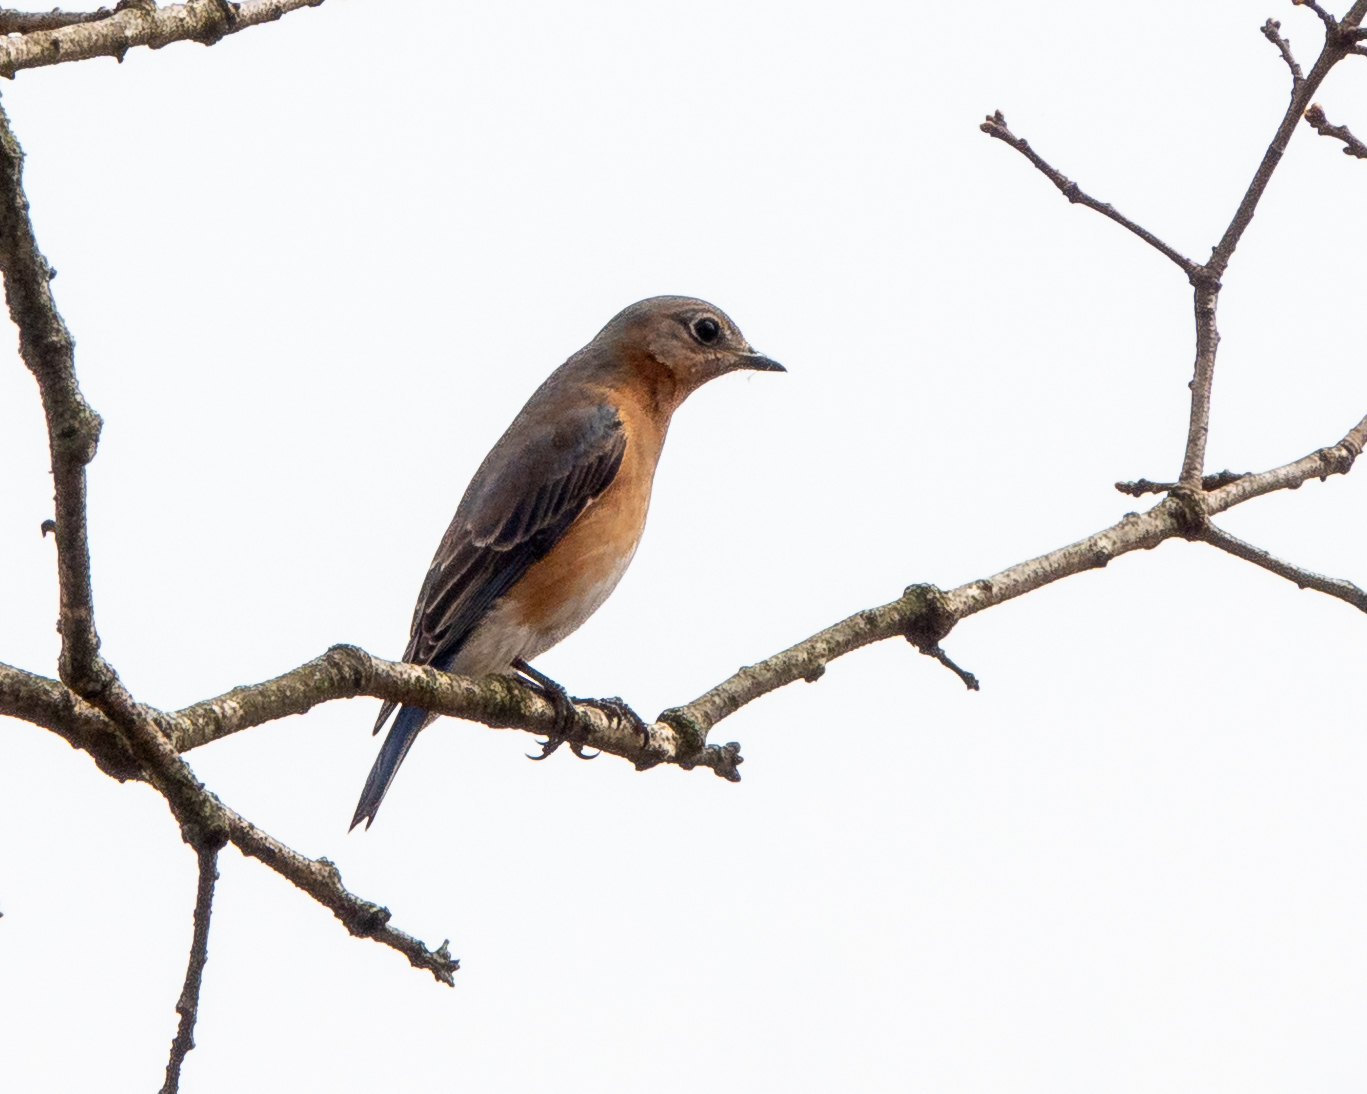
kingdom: Animalia
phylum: Chordata
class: Aves
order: Passeriformes
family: Turdidae
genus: Sialia
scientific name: Sialia sialis
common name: Eastern bluebird
